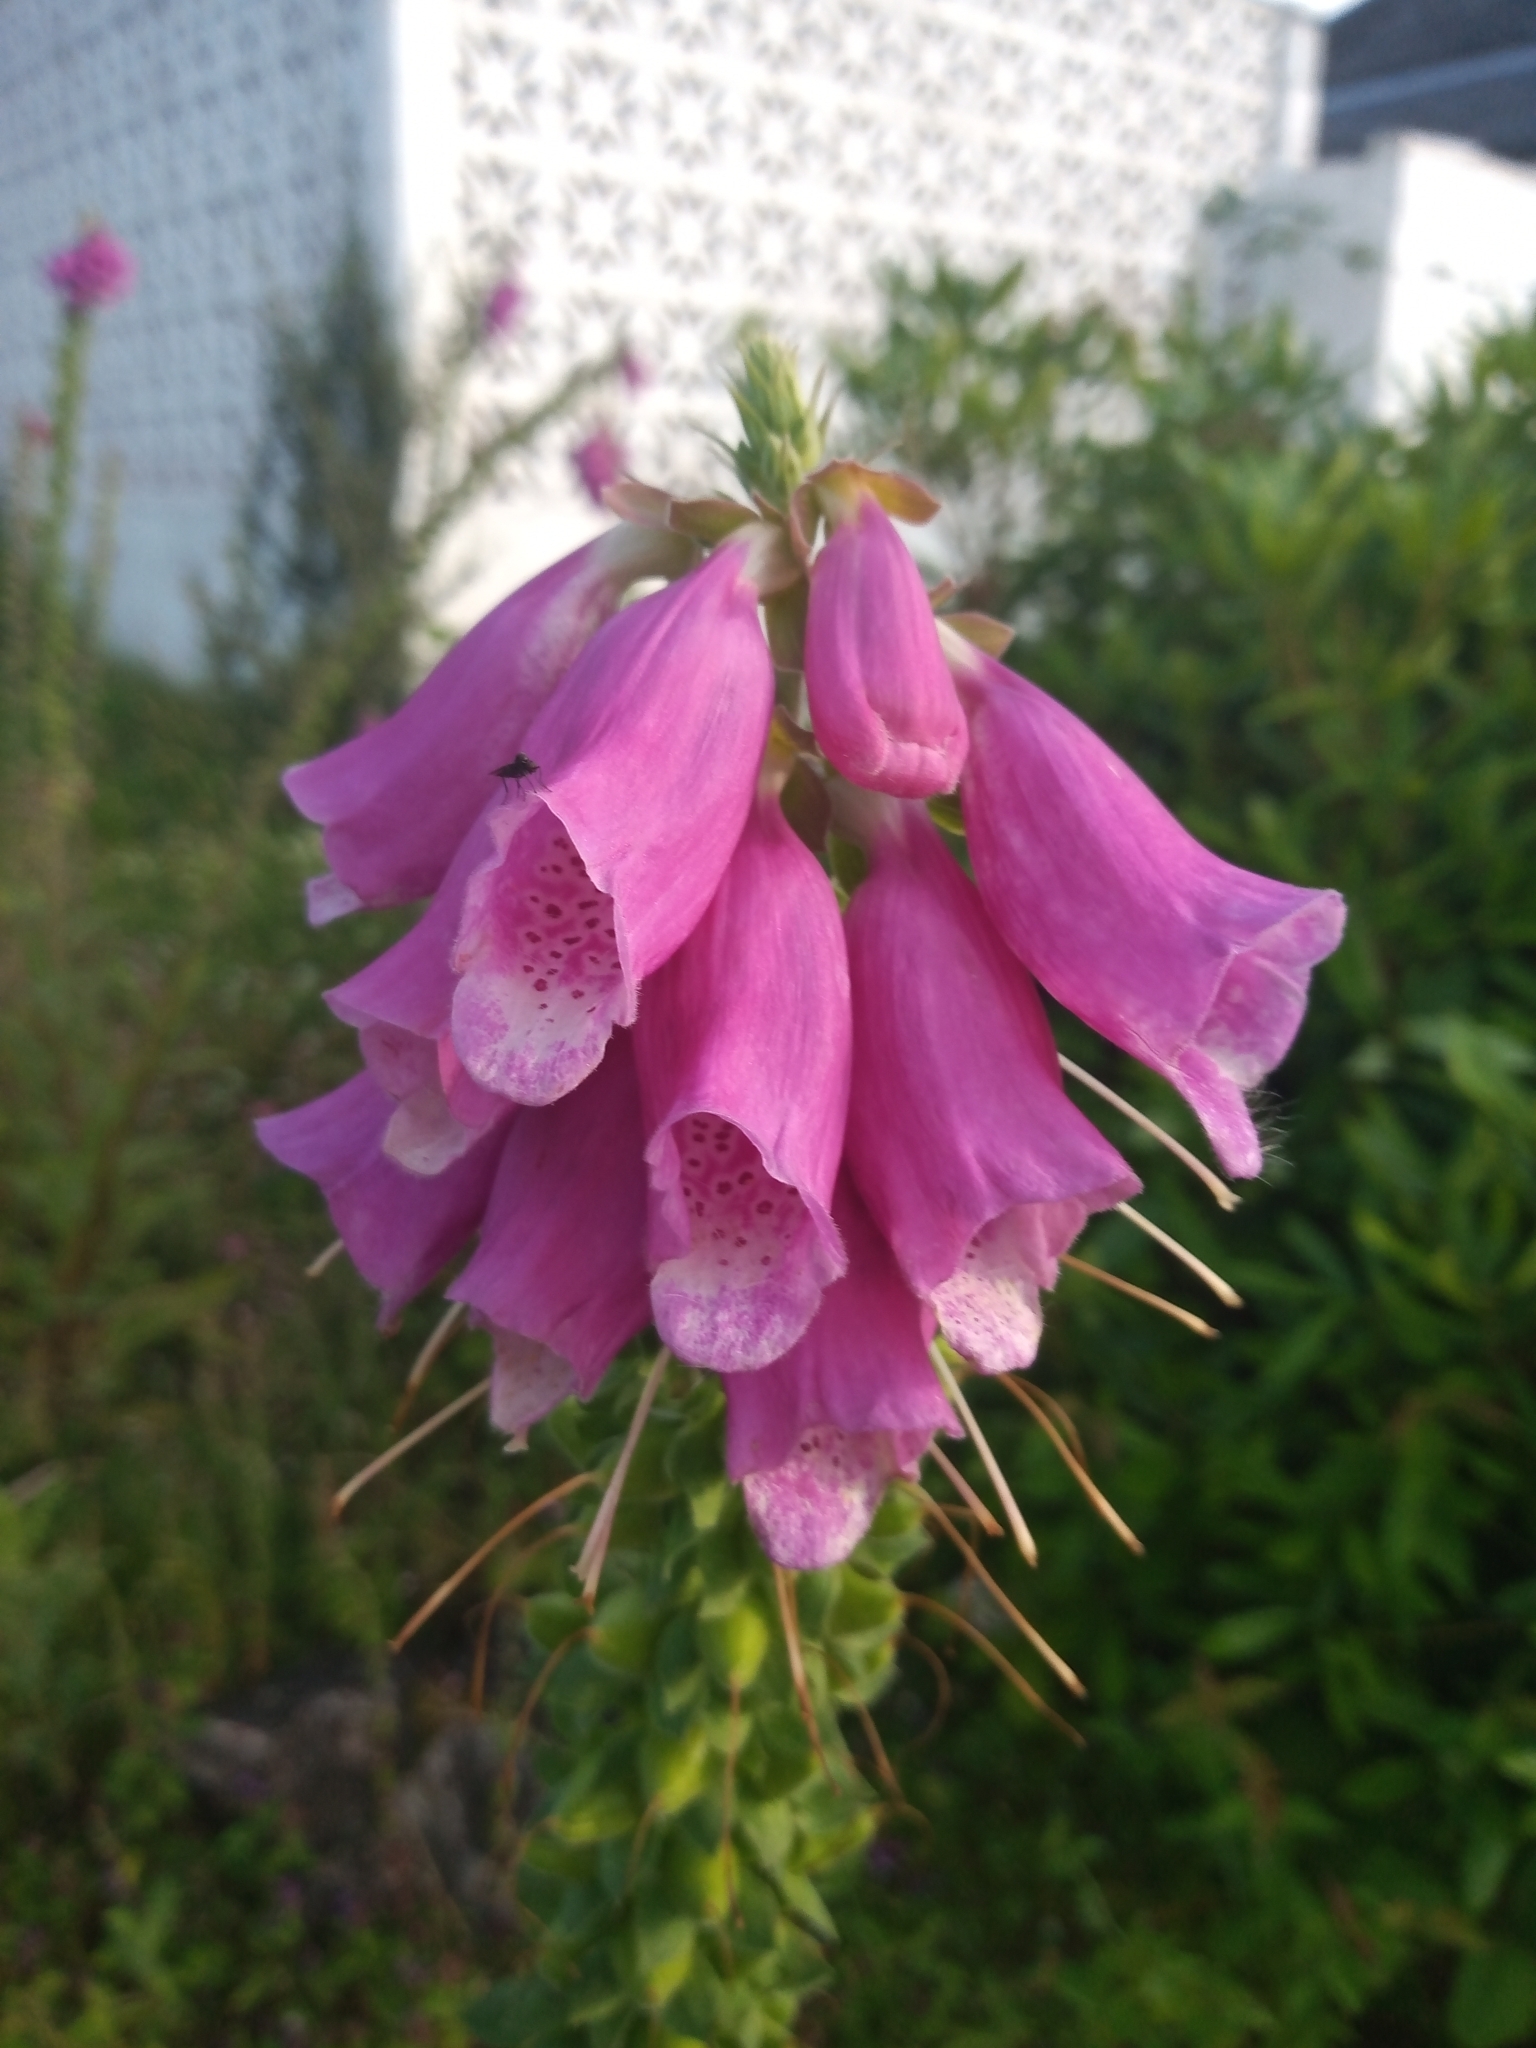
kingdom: Plantae
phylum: Tracheophyta
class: Magnoliopsida
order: Lamiales
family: Plantaginaceae
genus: Digitalis
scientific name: Digitalis purpurea
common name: Foxglove
